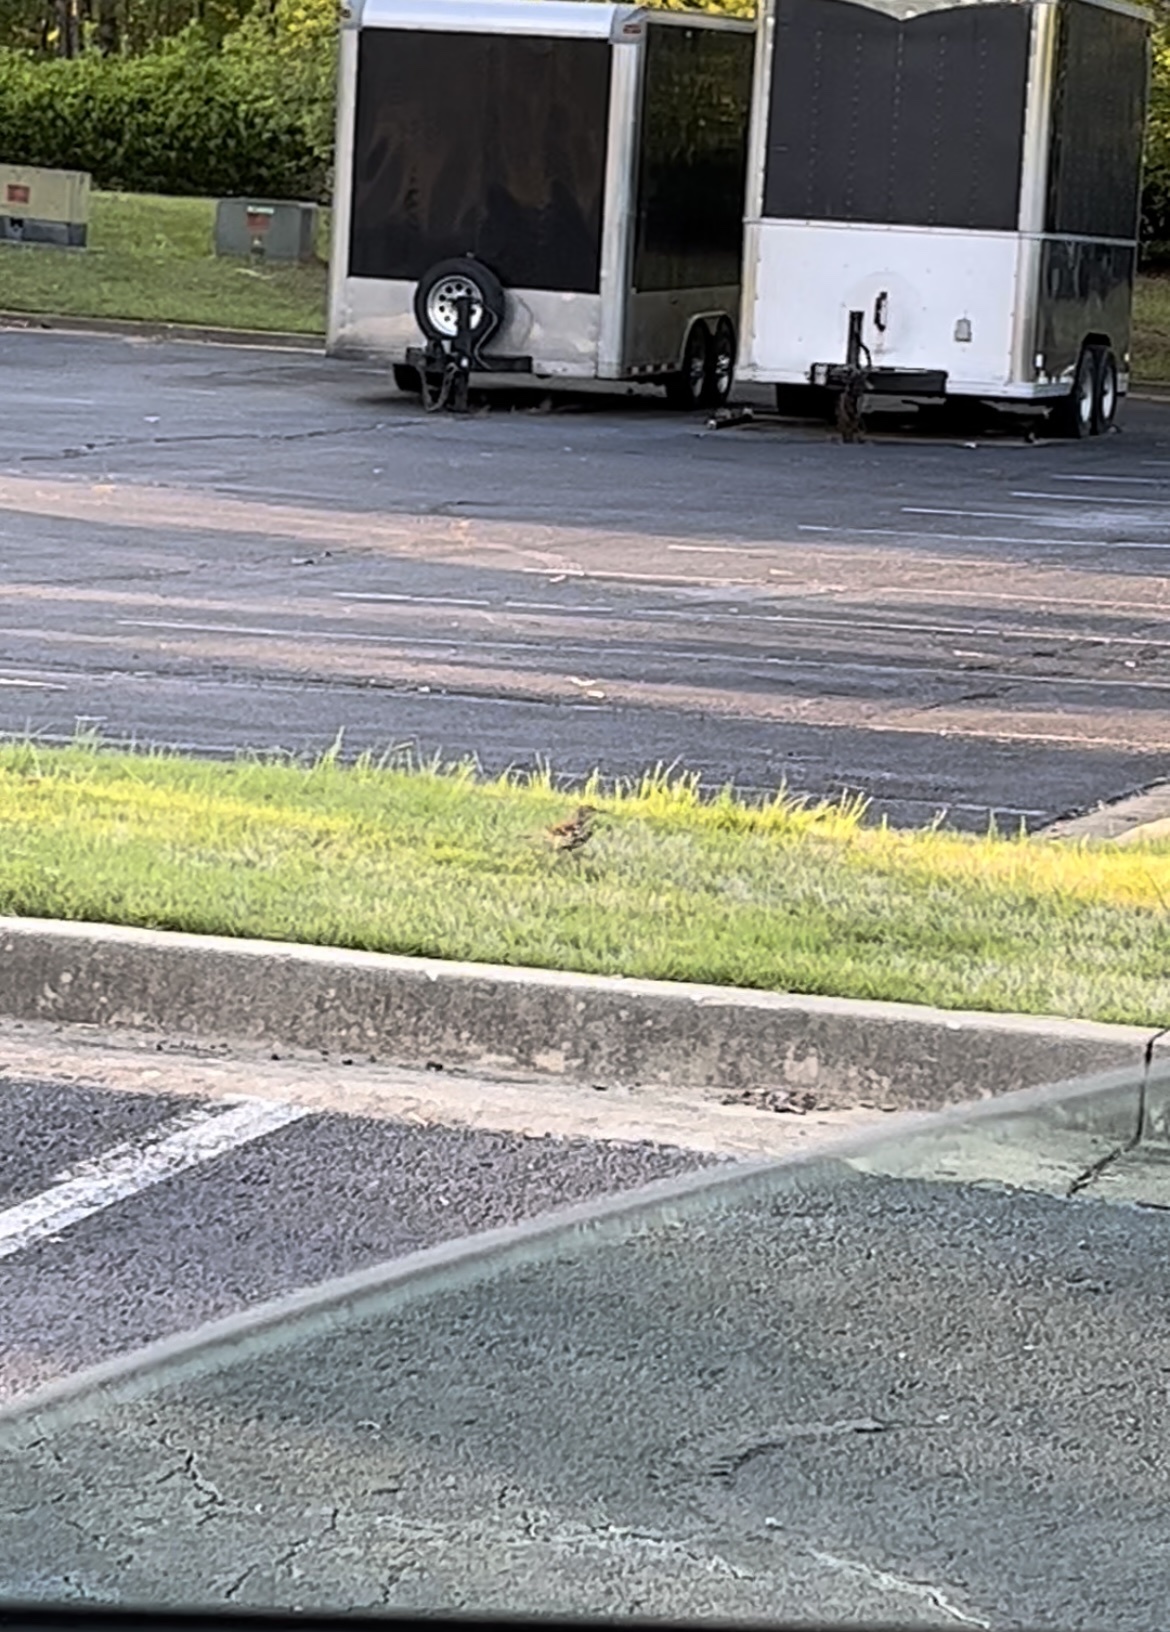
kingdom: Animalia
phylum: Chordata
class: Aves
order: Passeriformes
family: Mimidae
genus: Toxostoma
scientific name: Toxostoma rufum
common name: Brown thrasher
